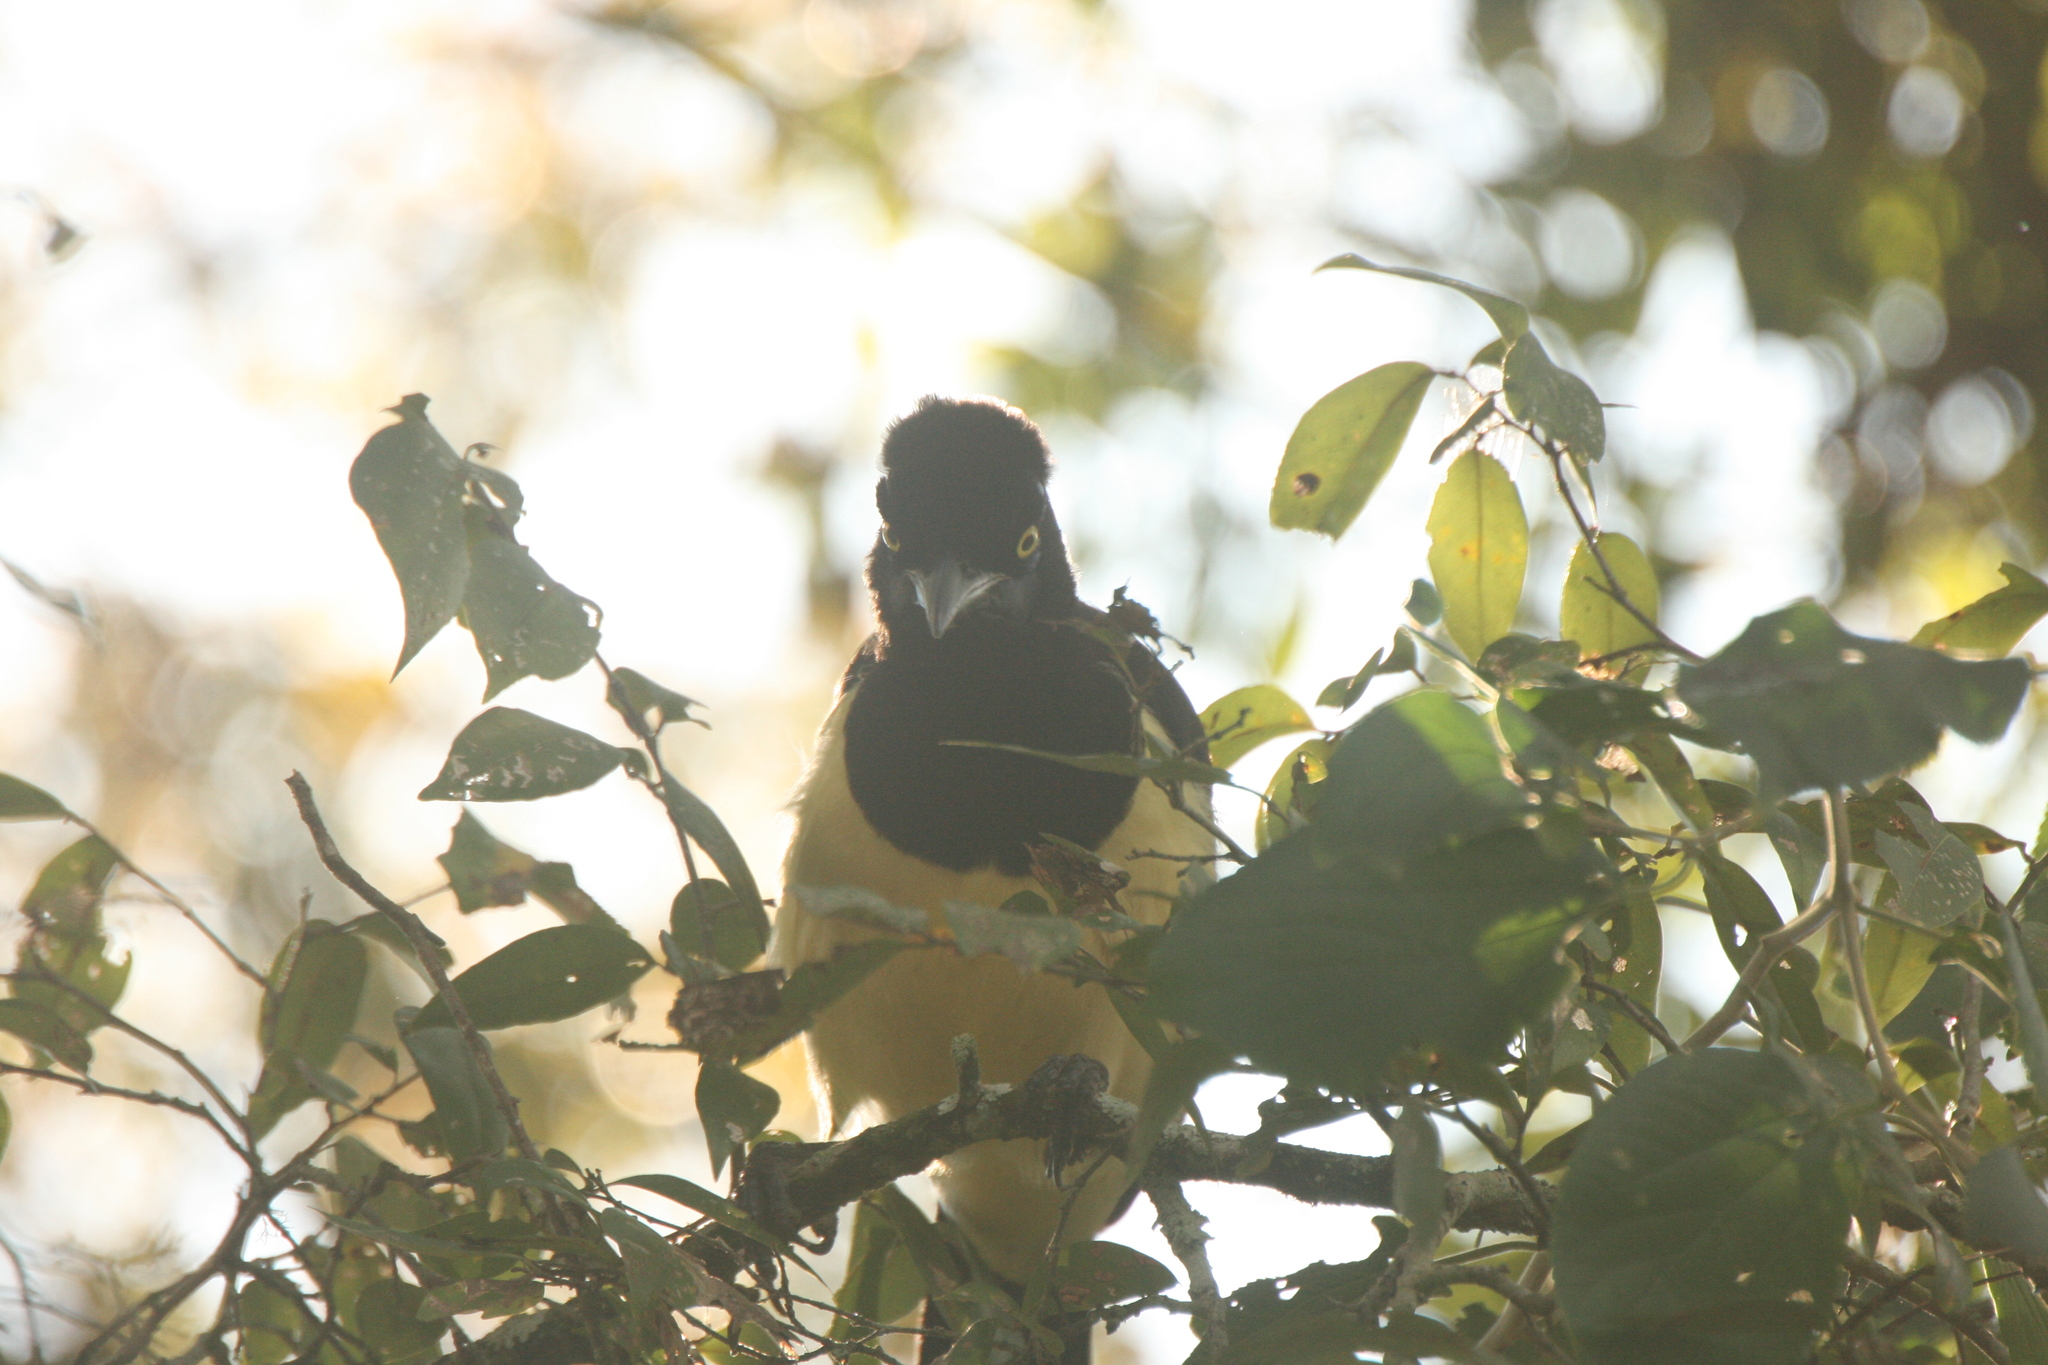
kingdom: Animalia
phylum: Chordata
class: Aves
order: Passeriformes
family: Corvidae
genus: Cyanocorax
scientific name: Cyanocorax chrysops
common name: Plush-crested jay
